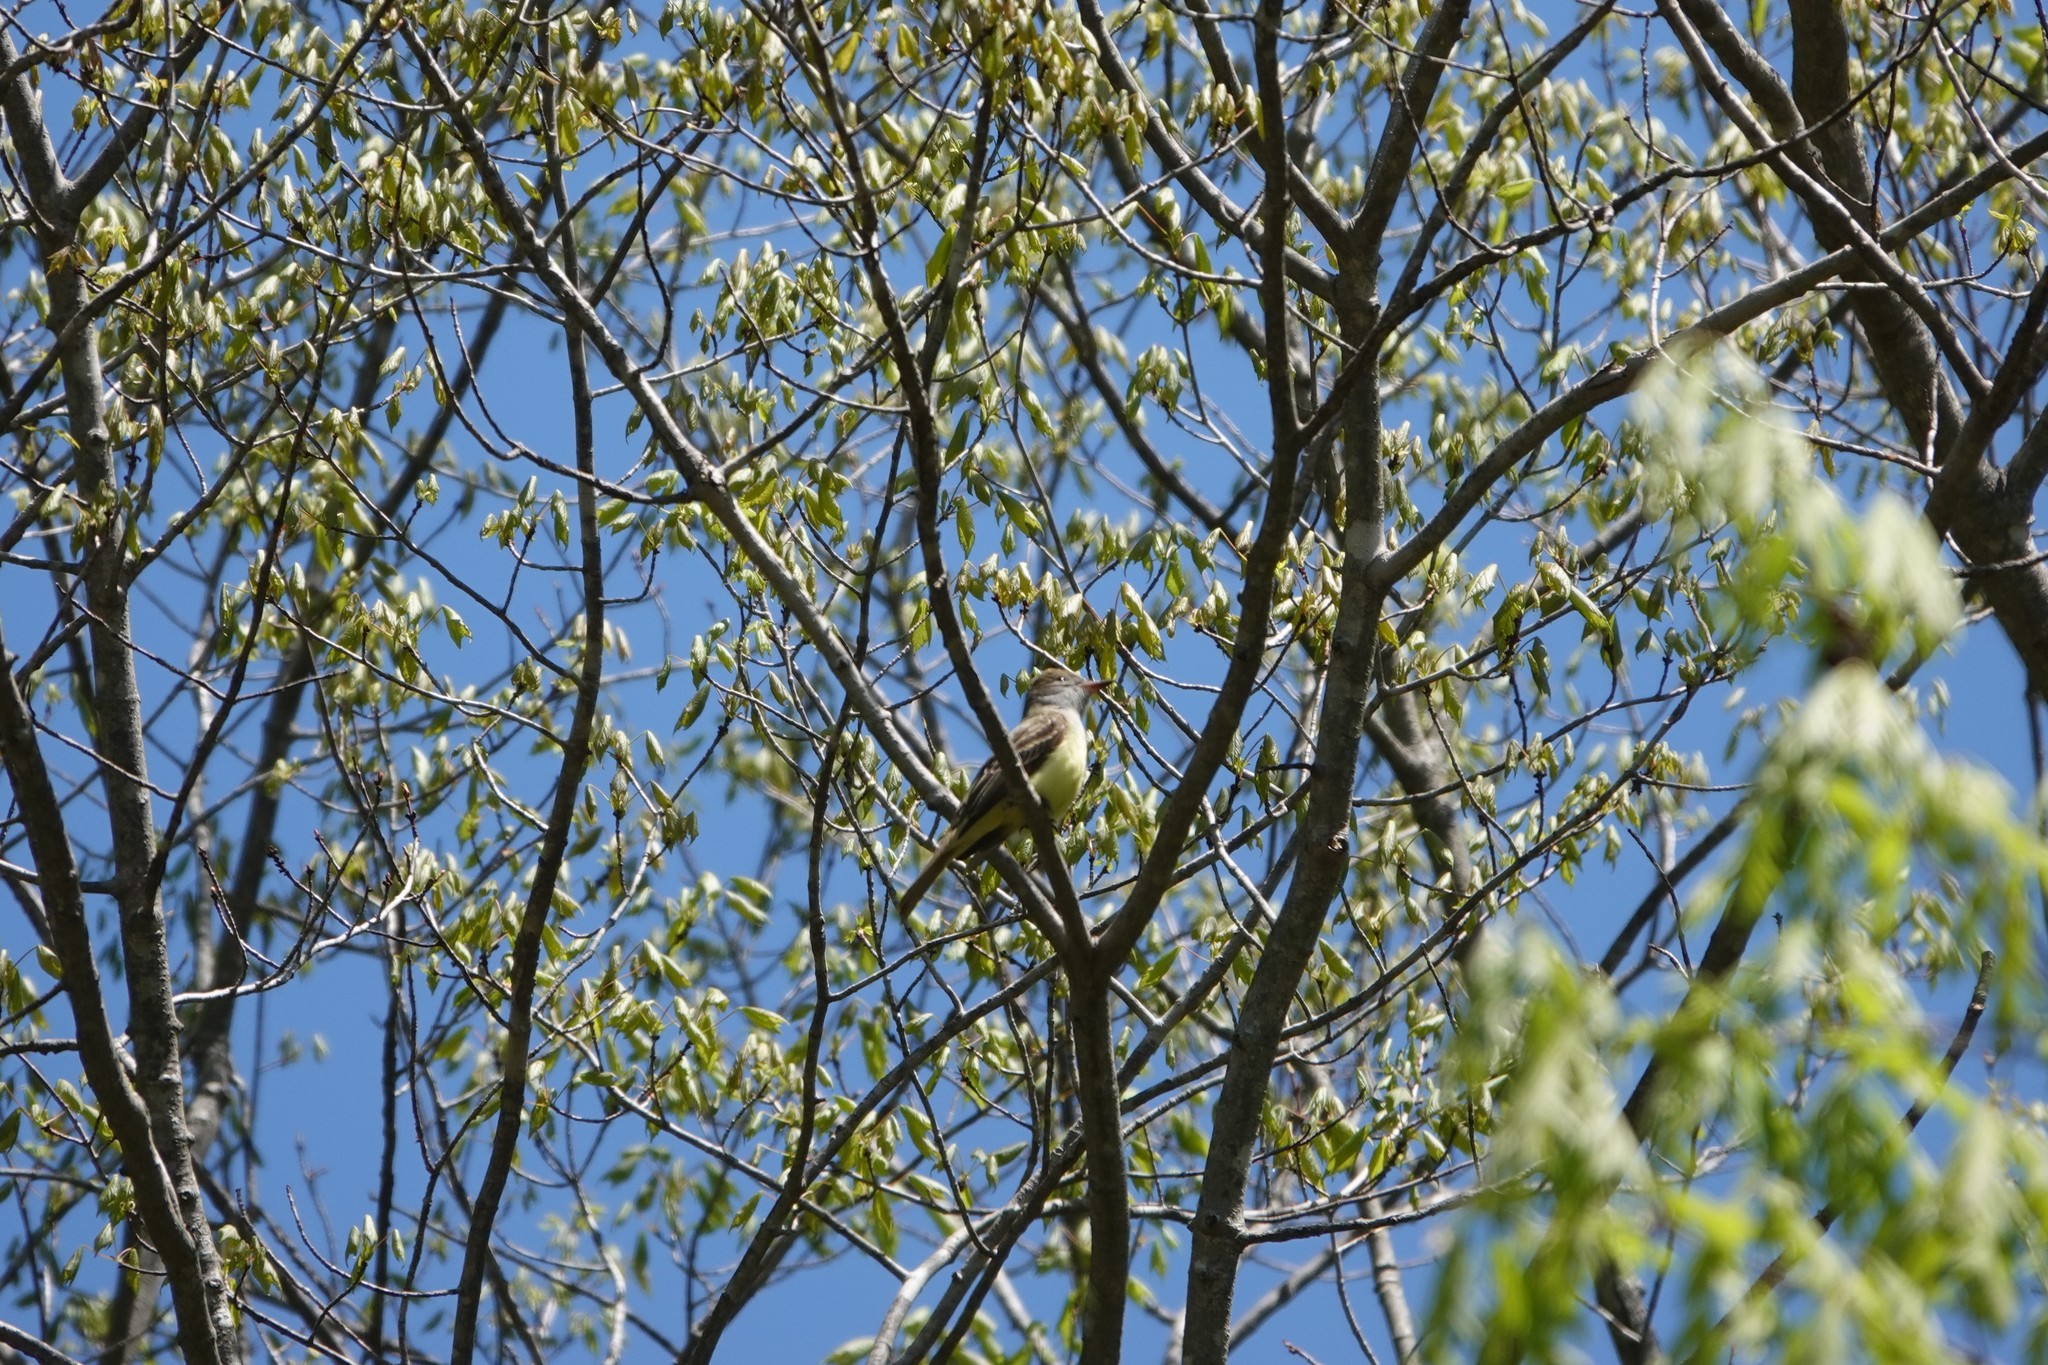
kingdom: Animalia
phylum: Chordata
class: Aves
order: Passeriformes
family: Tyrannidae
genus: Myiarchus
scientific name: Myiarchus crinitus
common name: Great crested flycatcher
